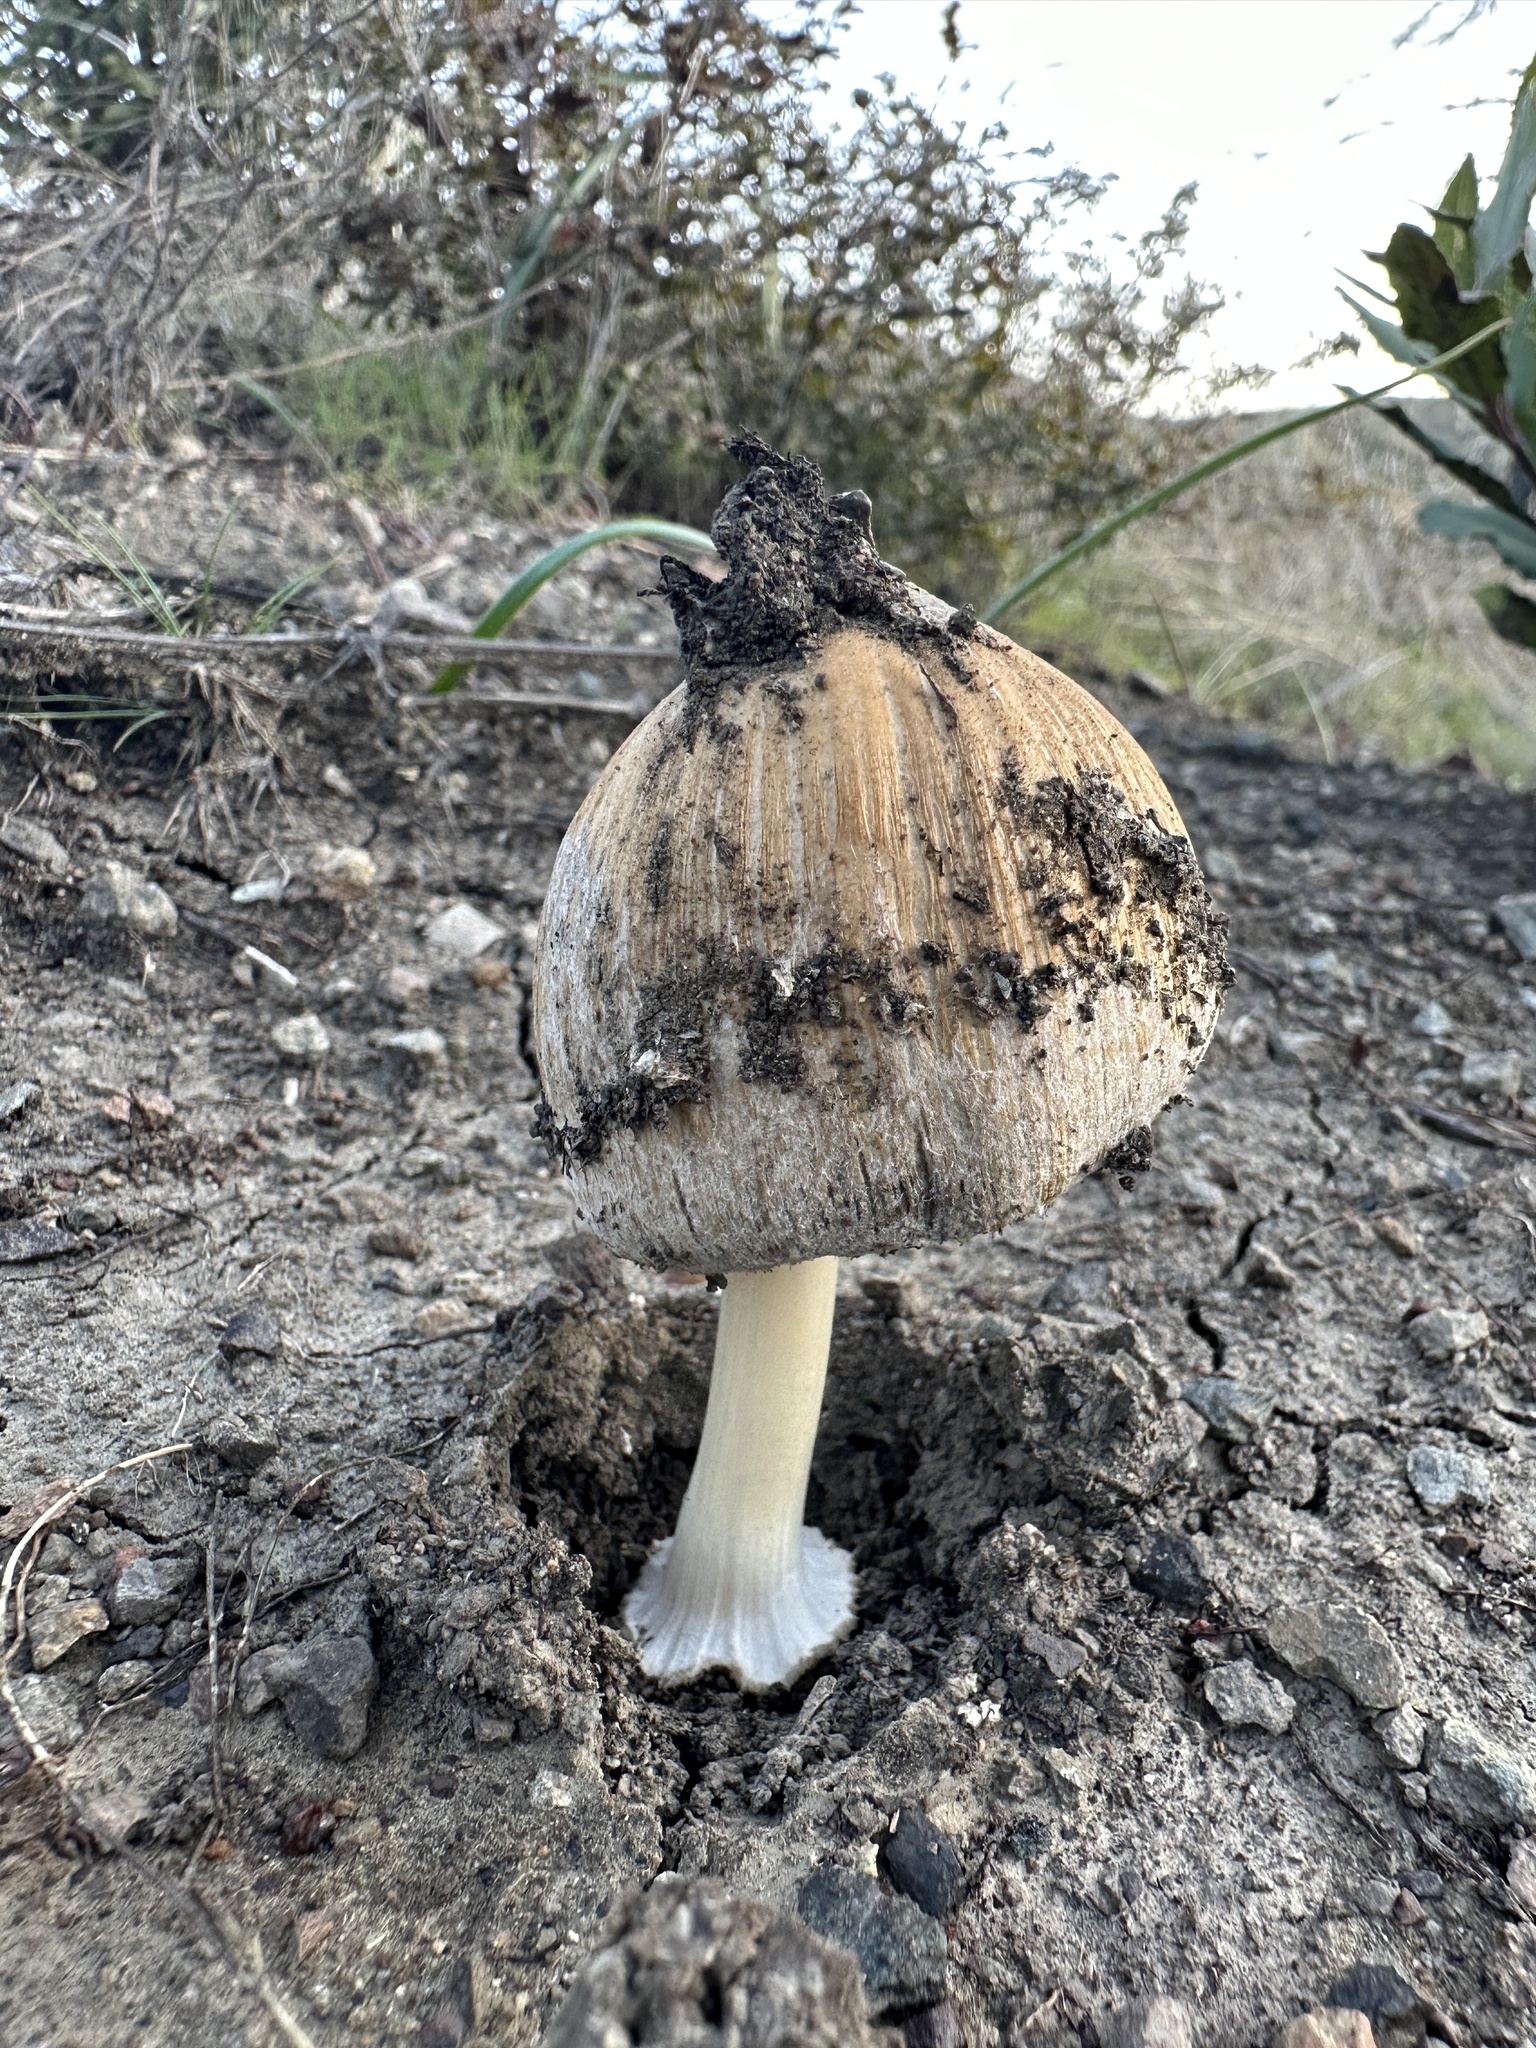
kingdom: Fungi
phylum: Basidiomycota
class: Agaricomycetes
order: Agaricales
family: Psathyrellaceae
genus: Coprinellus
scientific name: Coprinellus bipellis
